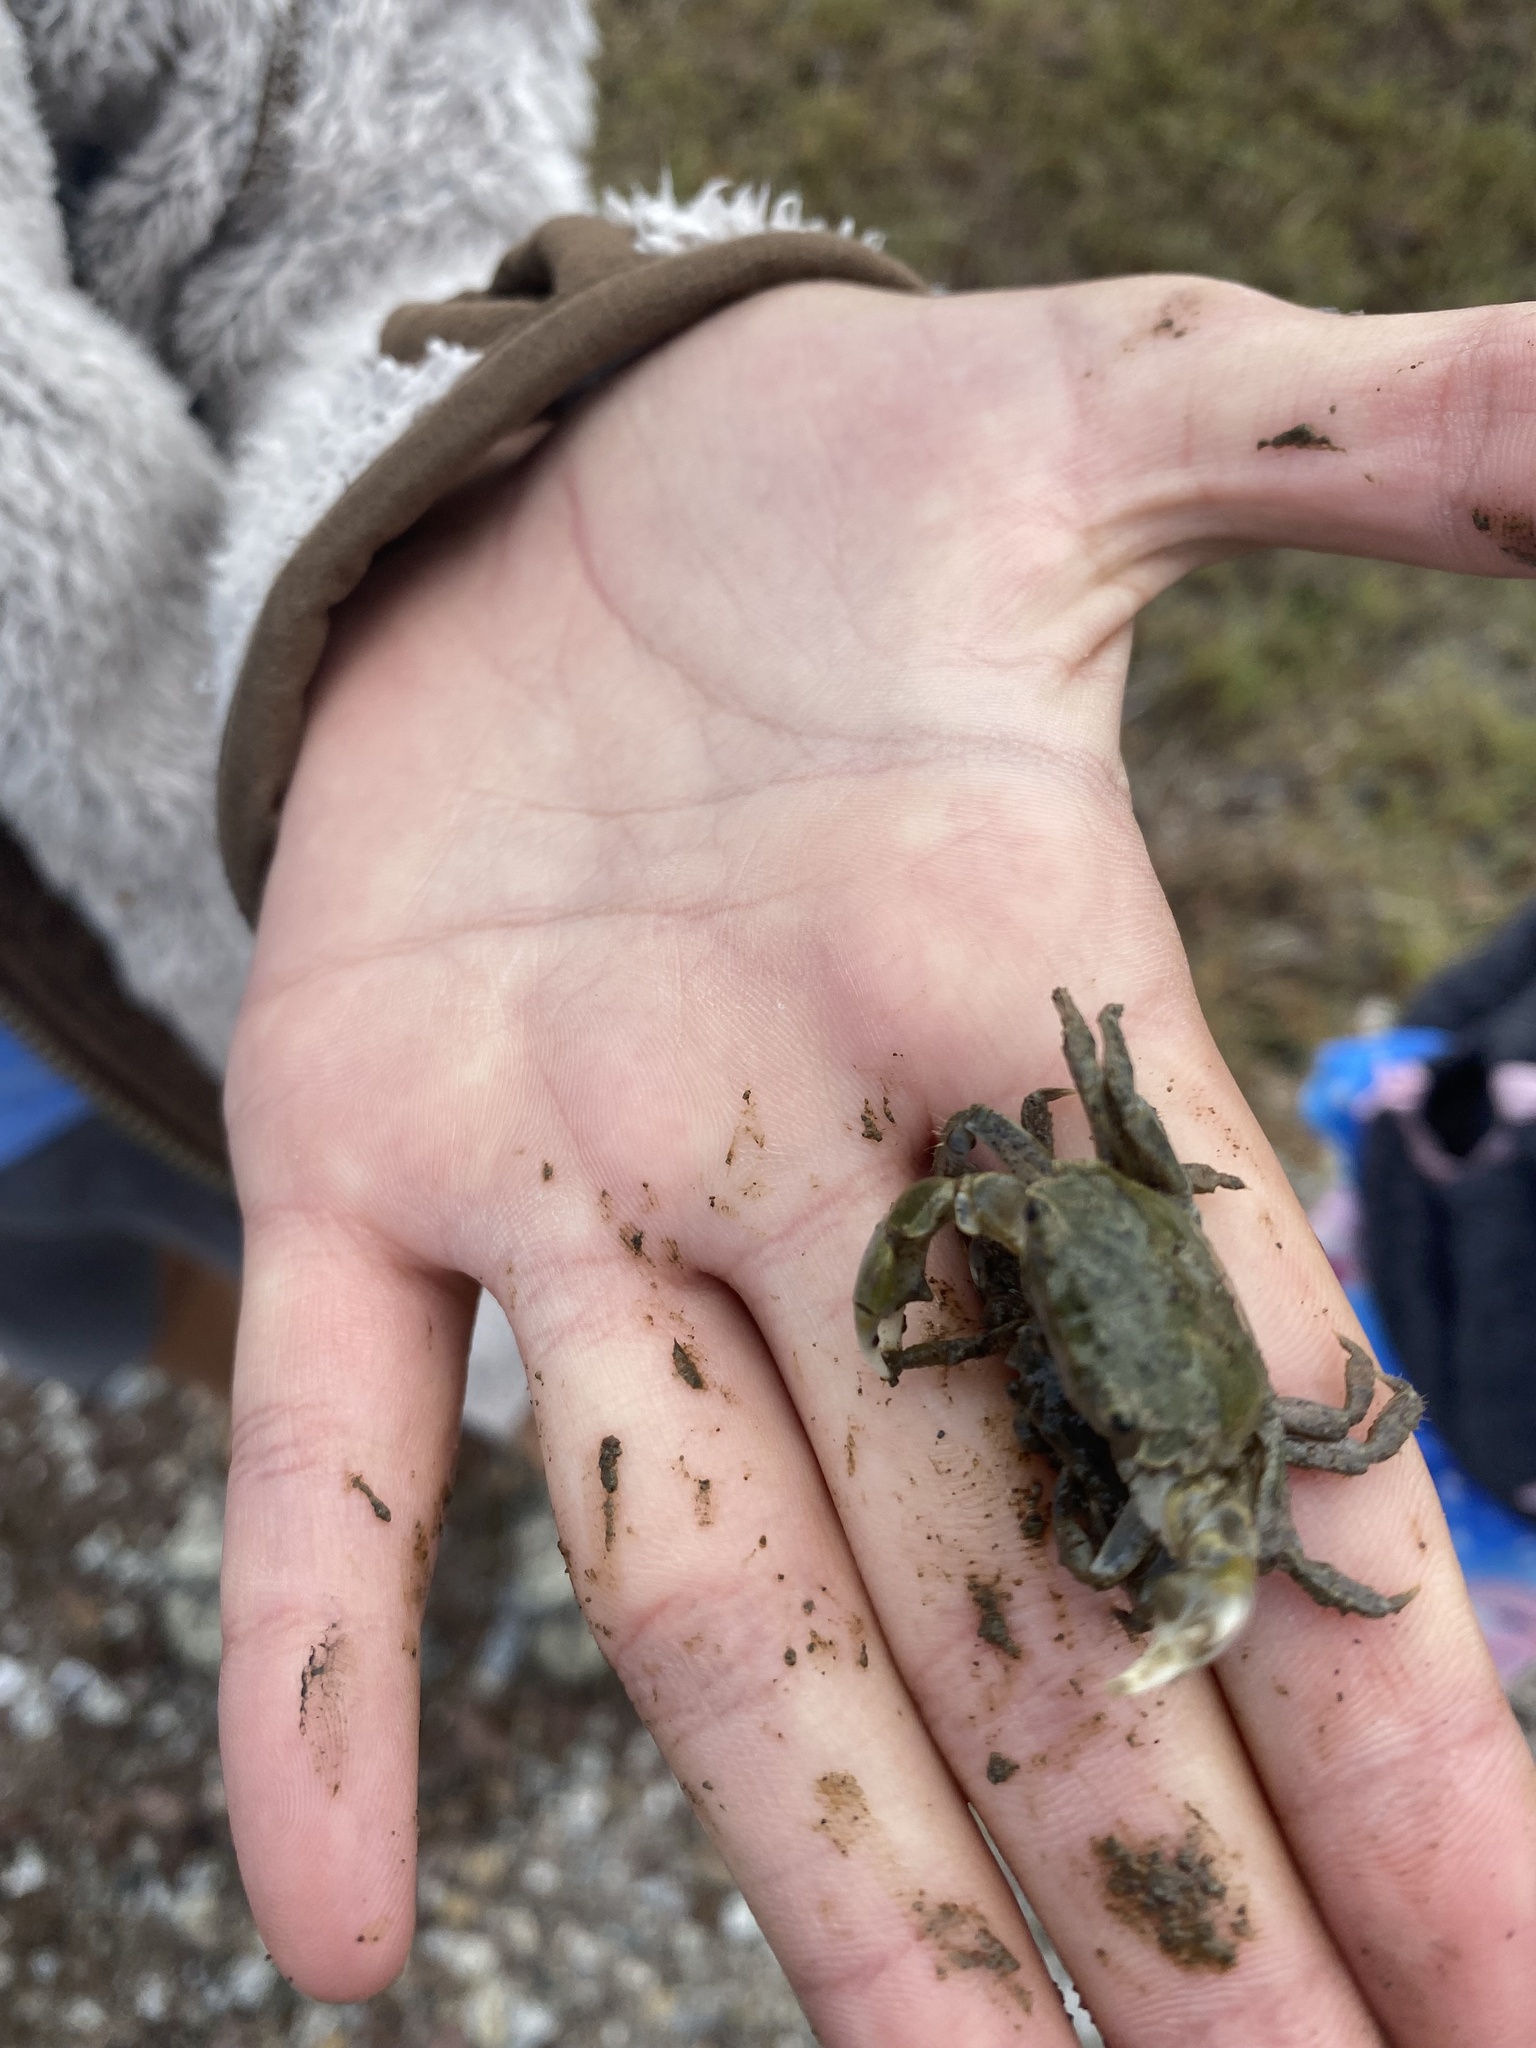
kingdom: Animalia
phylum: Arthropoda
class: Malacostraca
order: Decapoda
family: Varunidae
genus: Hemigrapsus
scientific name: Hemigrapsus oregonensis
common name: Yellow shore crab
